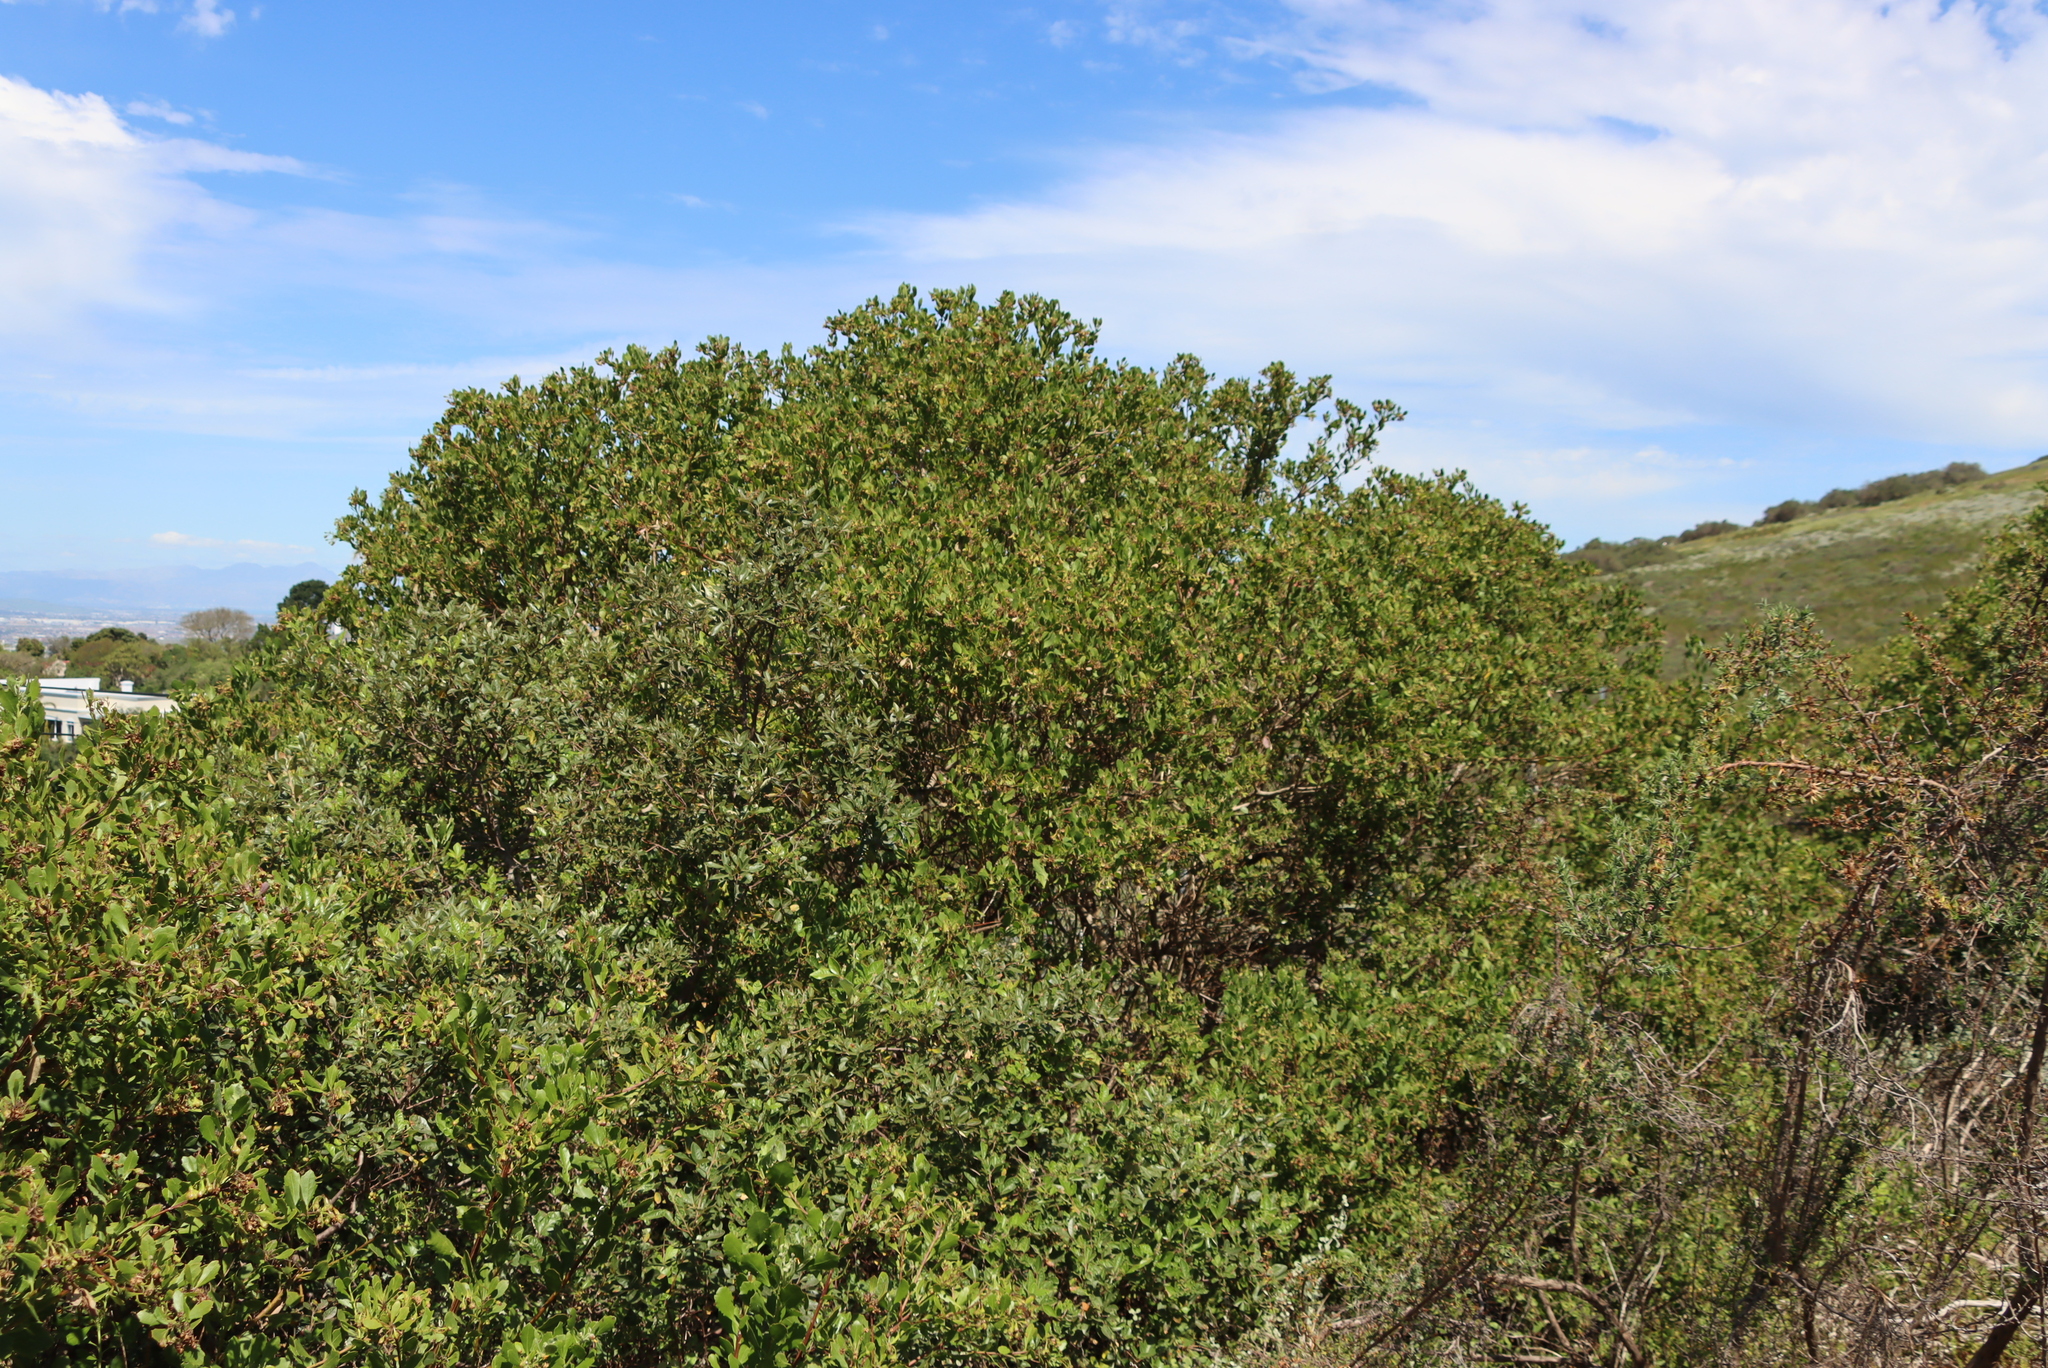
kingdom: Plantae
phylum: Tracheophyta
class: Magnoliopsida
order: Asterales
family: Asteraceae
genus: Osteospermum
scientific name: Osteospermum moniliferum
